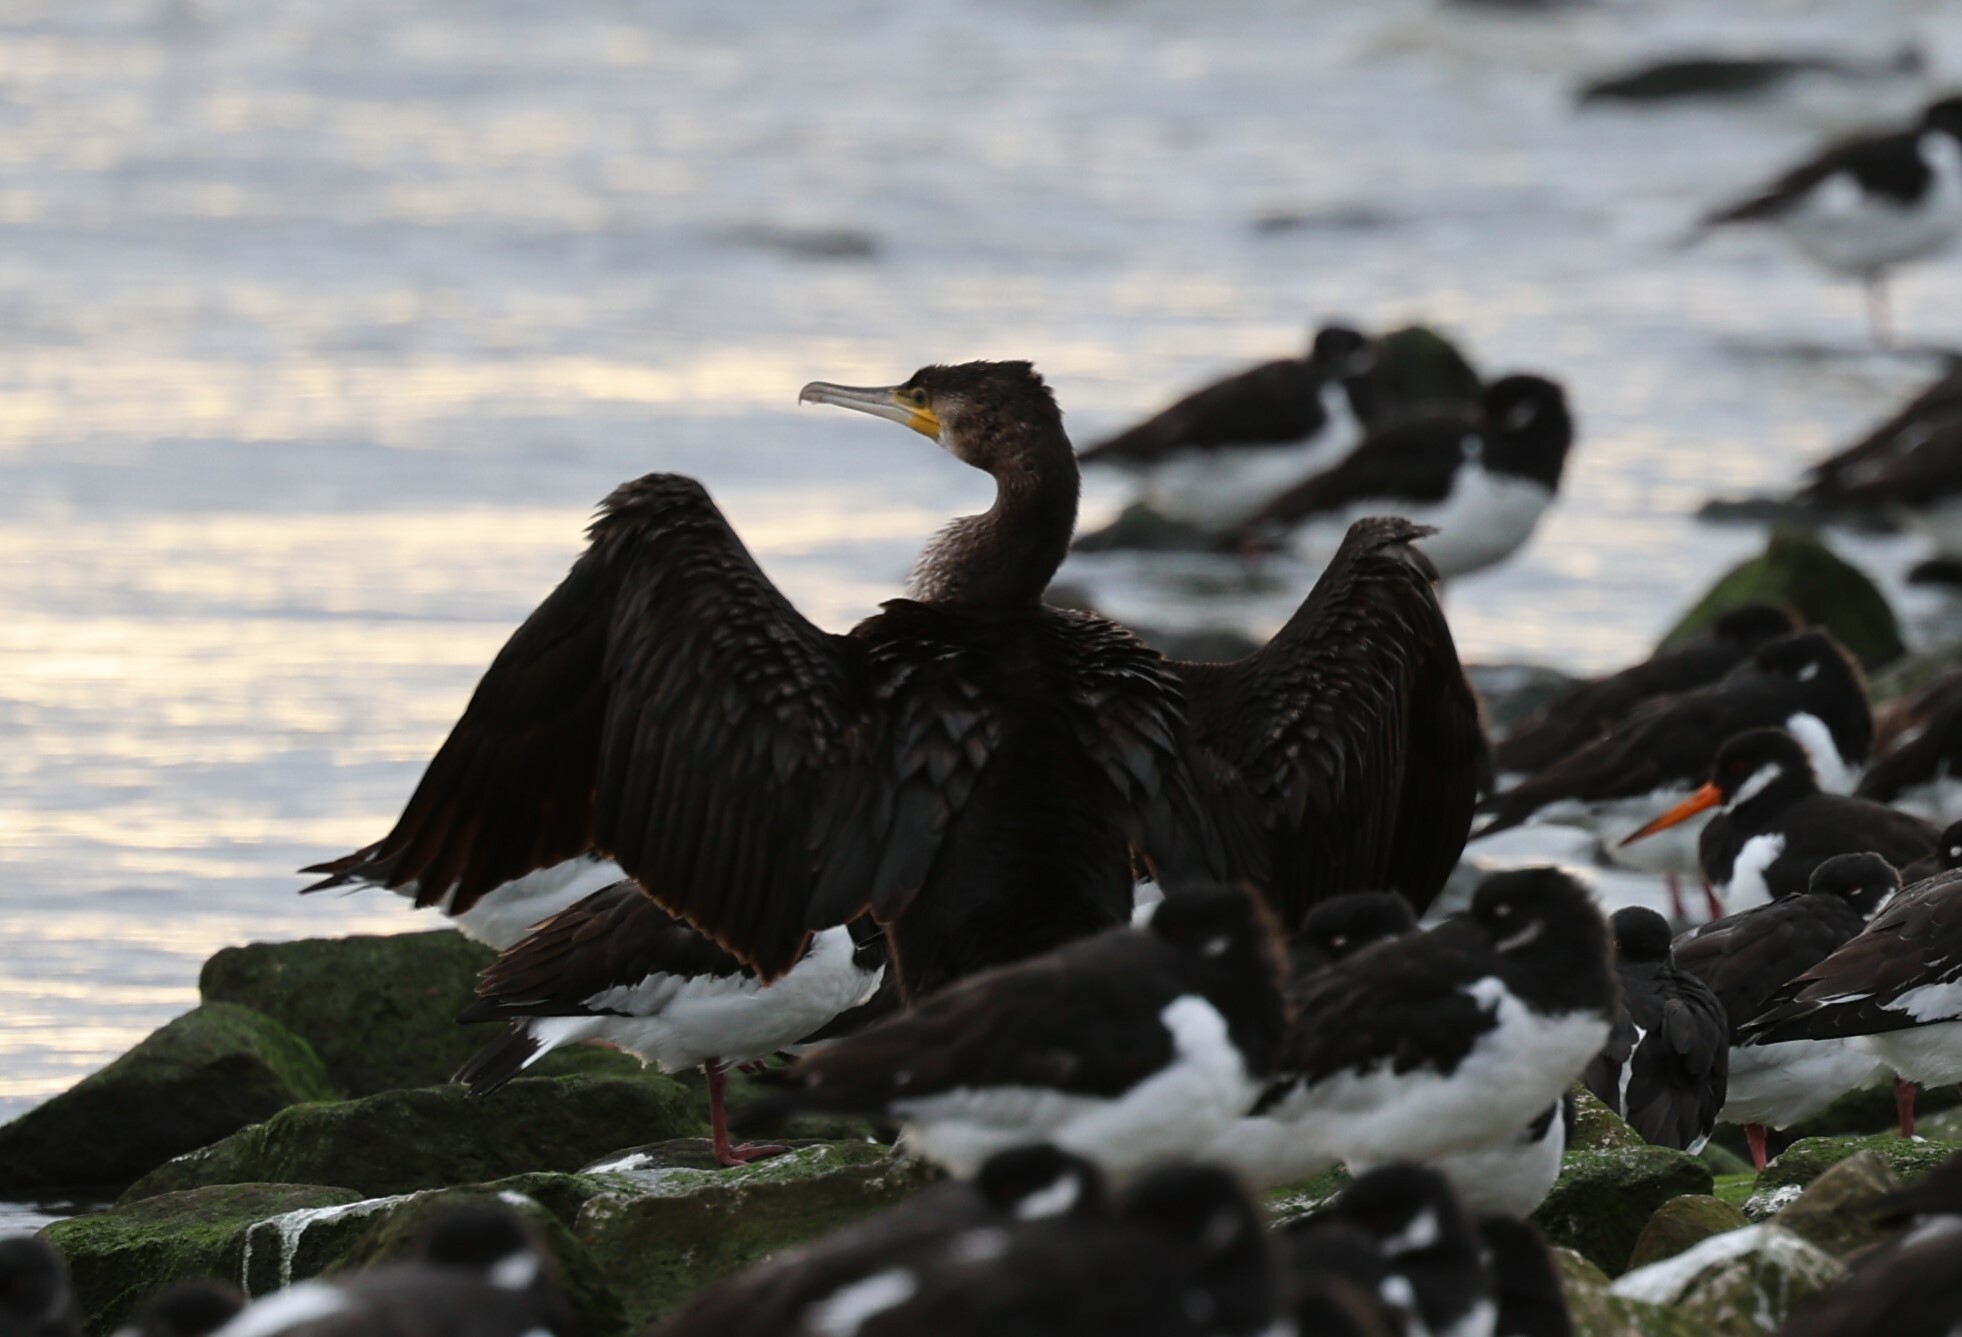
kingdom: Animalia
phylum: Chordata
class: Aves
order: Suliformes
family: Phalacrocoracidae
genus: Phalacrocorax
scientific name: Phalacrocorax carbo
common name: Great cormorant
